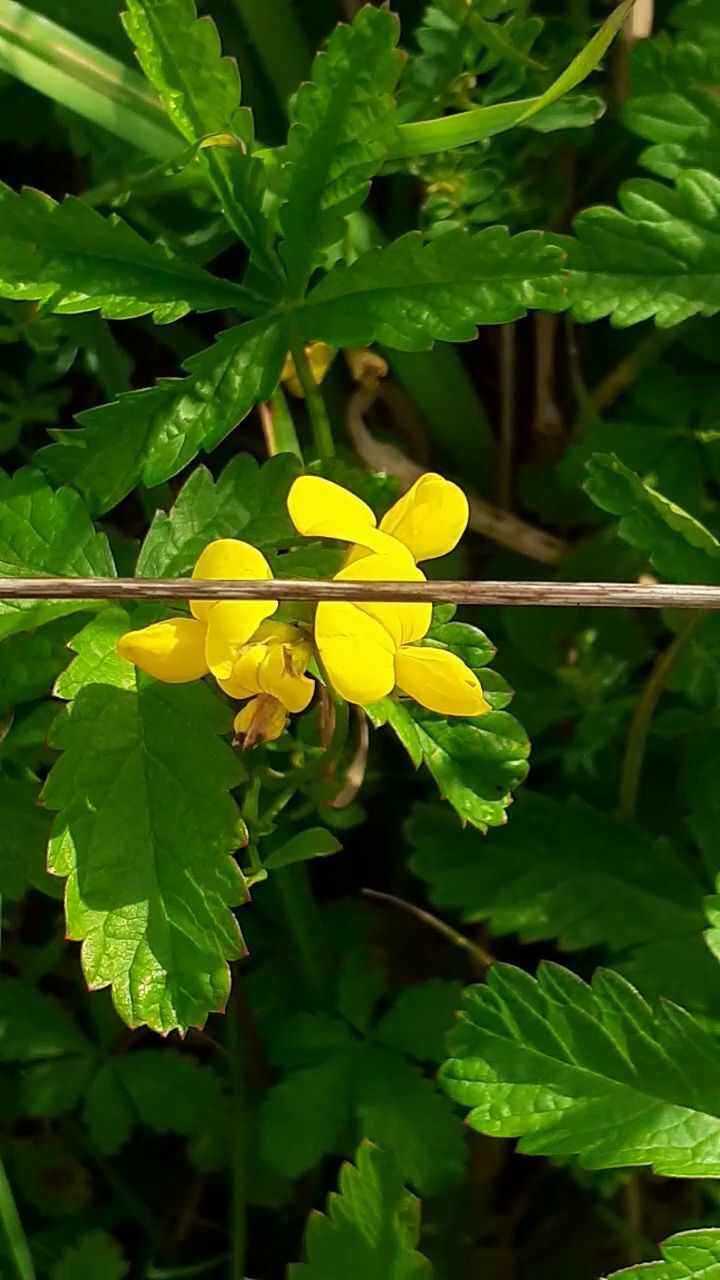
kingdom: Plantae
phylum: Tracheophyta
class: Magnoliopsida
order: Fabales
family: Fabaceae
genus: Lotus
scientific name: Lotus corniculatus
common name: Common bird's-foot-trefoil
